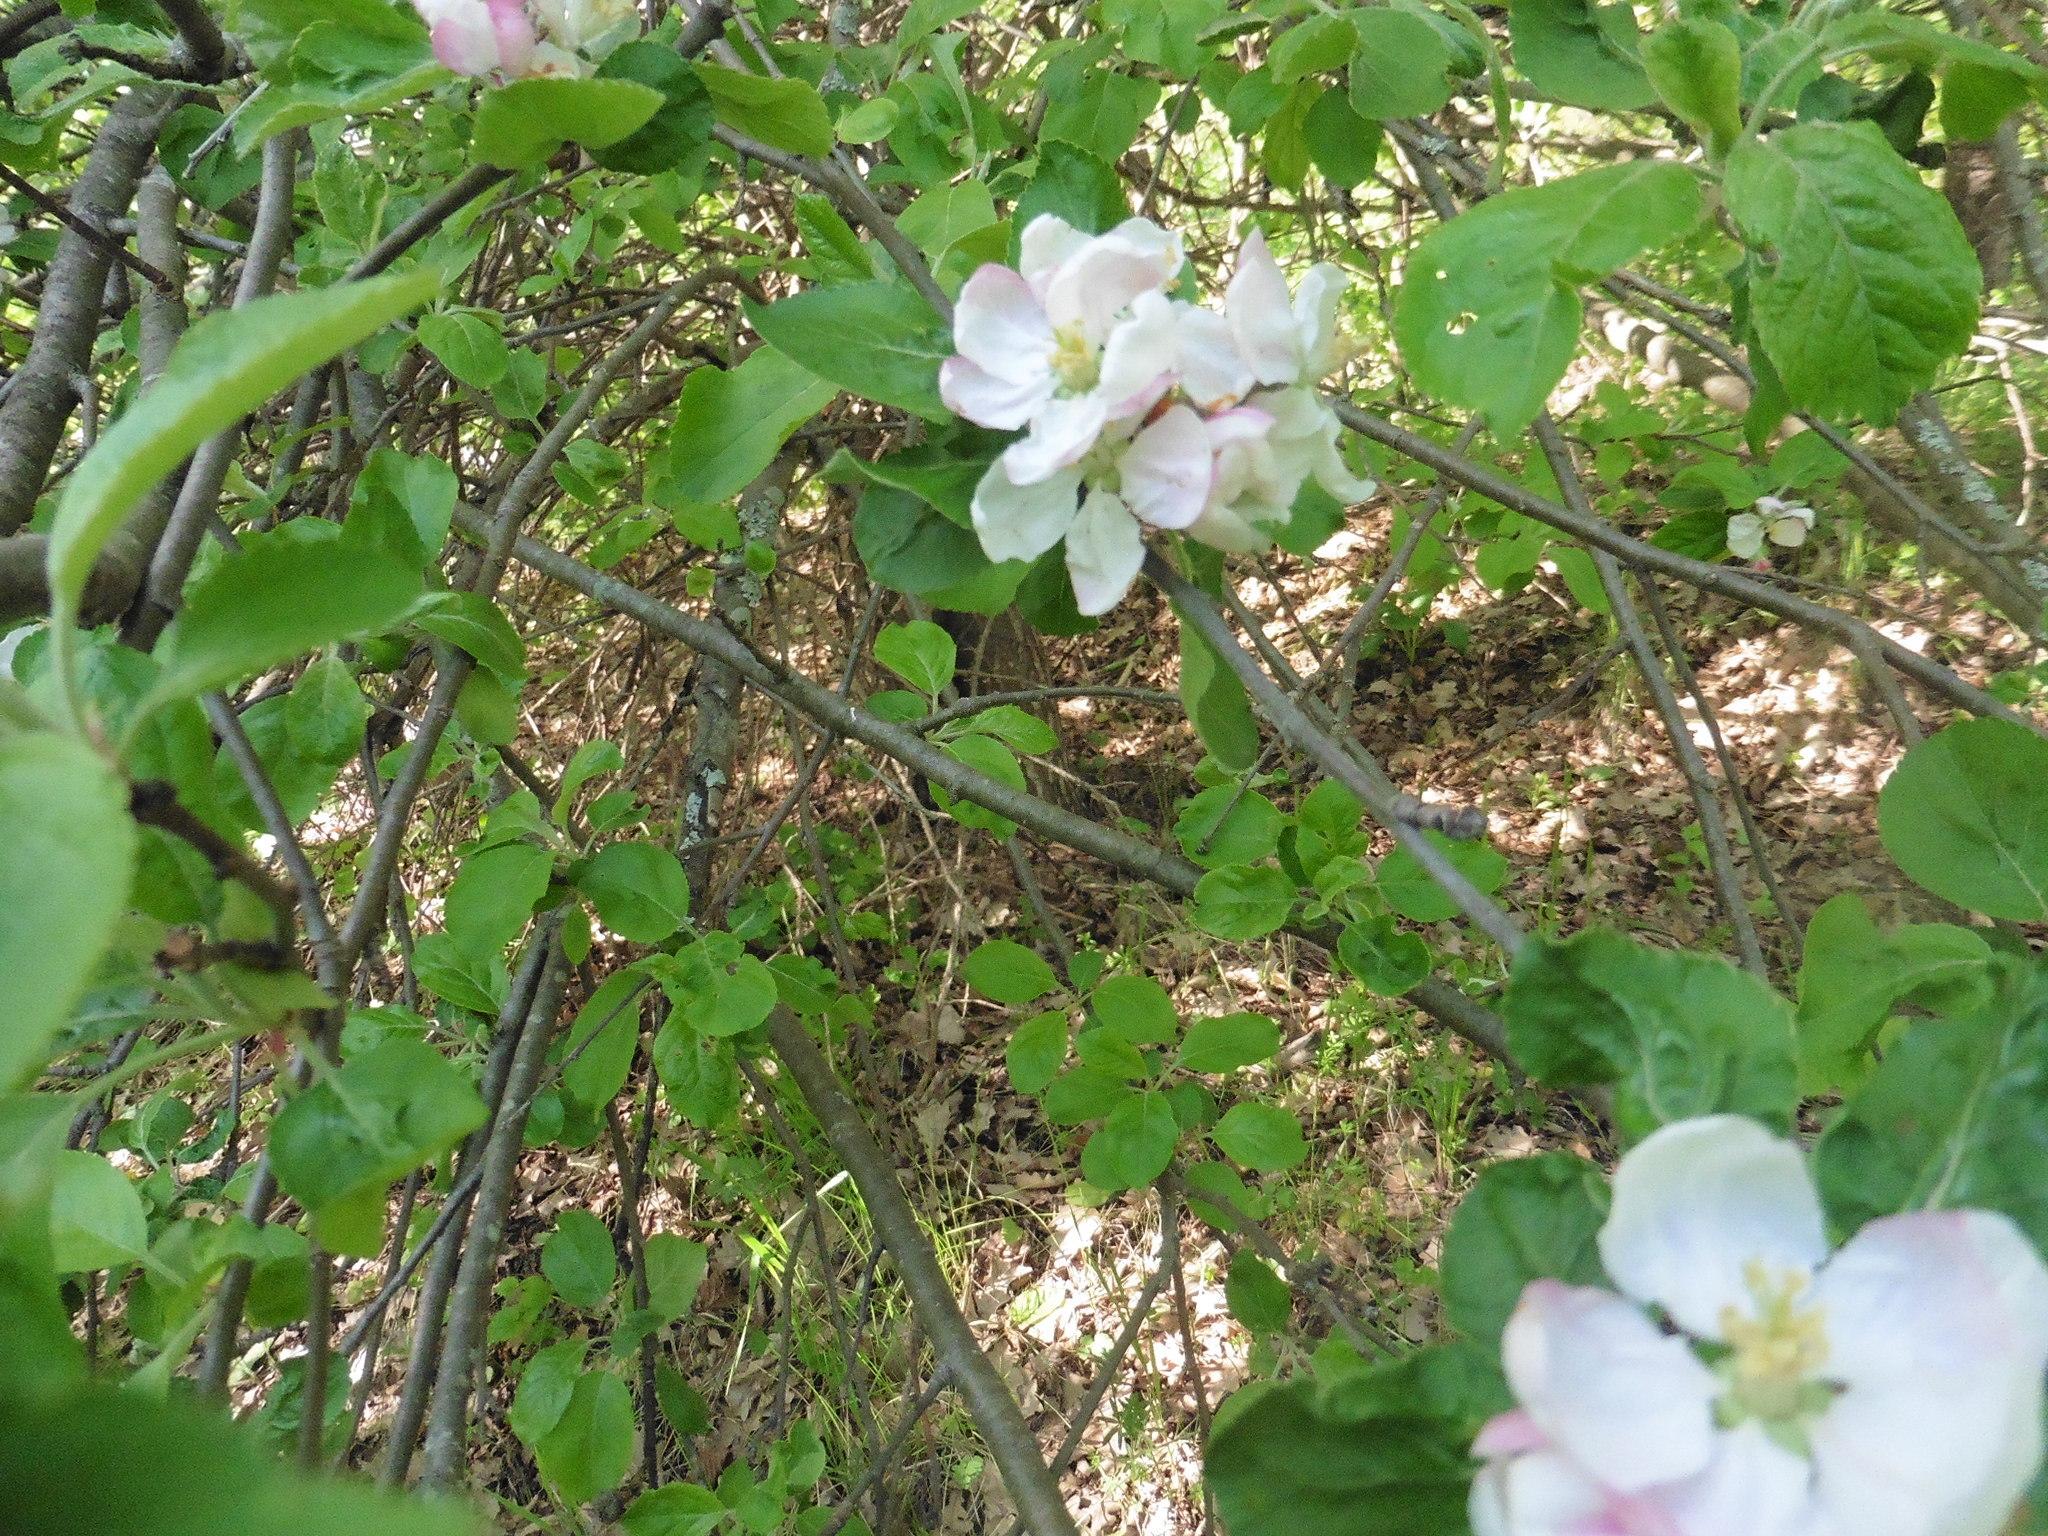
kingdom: Plantae
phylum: Tracheophyta
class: Magnoliopsida
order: Rosales
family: Rosaceae
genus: Malus
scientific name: Malus domestica
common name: Apple
